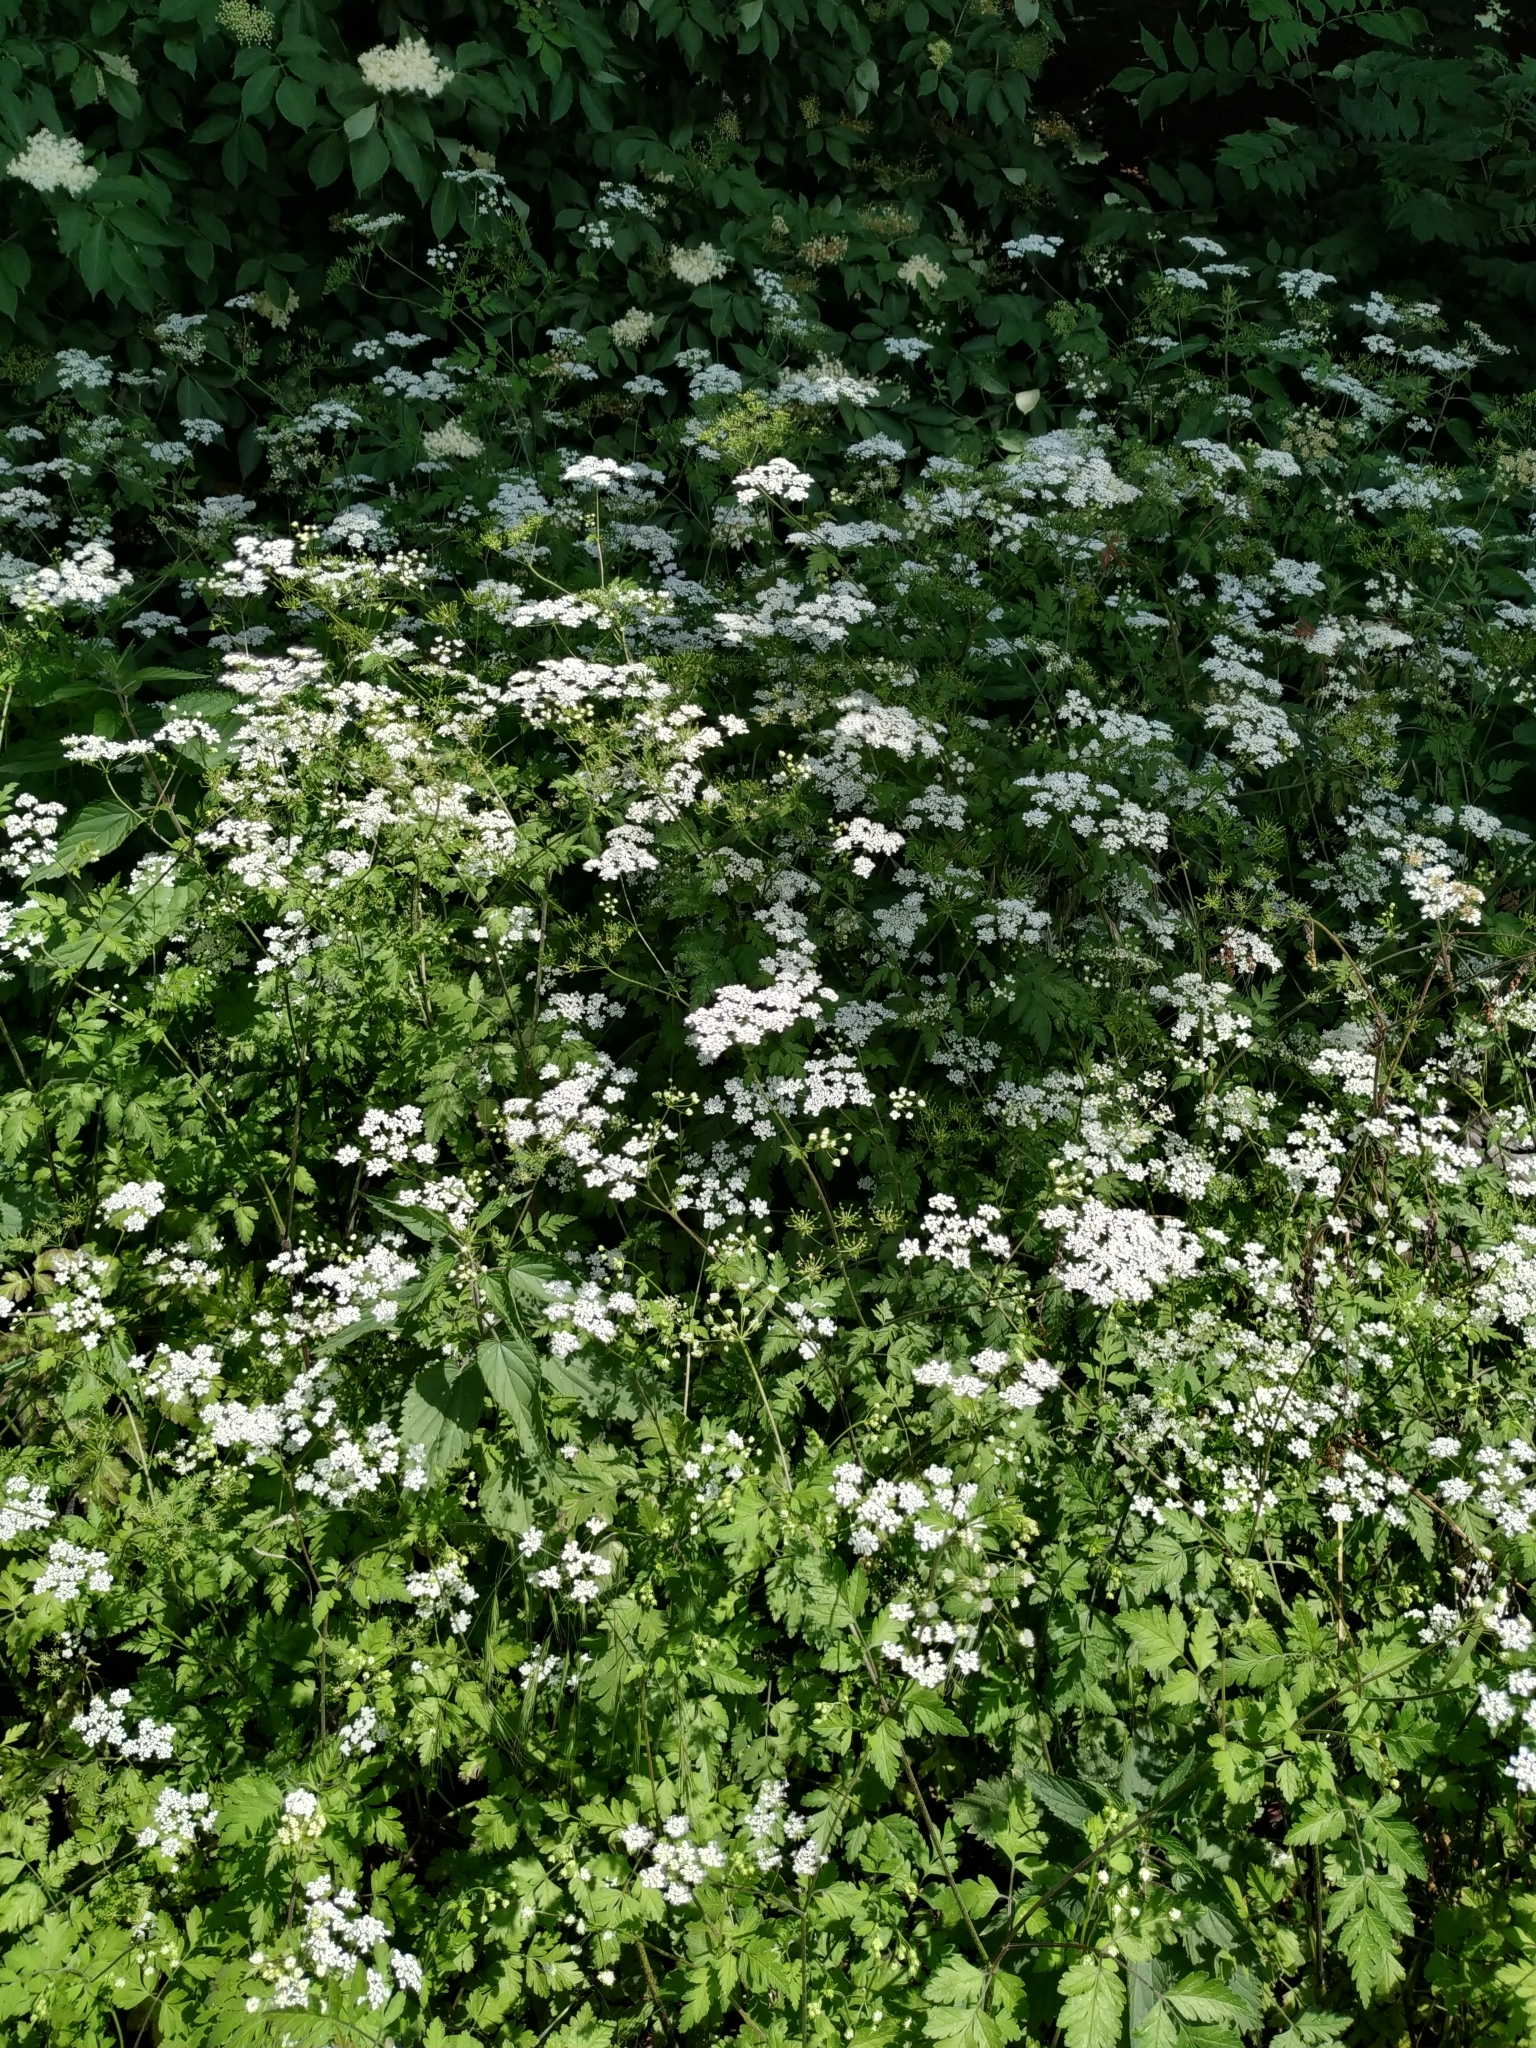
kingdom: Plantae
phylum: Tracheophyta
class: Magnoliopsida
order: Apiales
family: Apiaceae
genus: Chaerophyllum
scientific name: Chaerophyllum temulum
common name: Rough chervil
